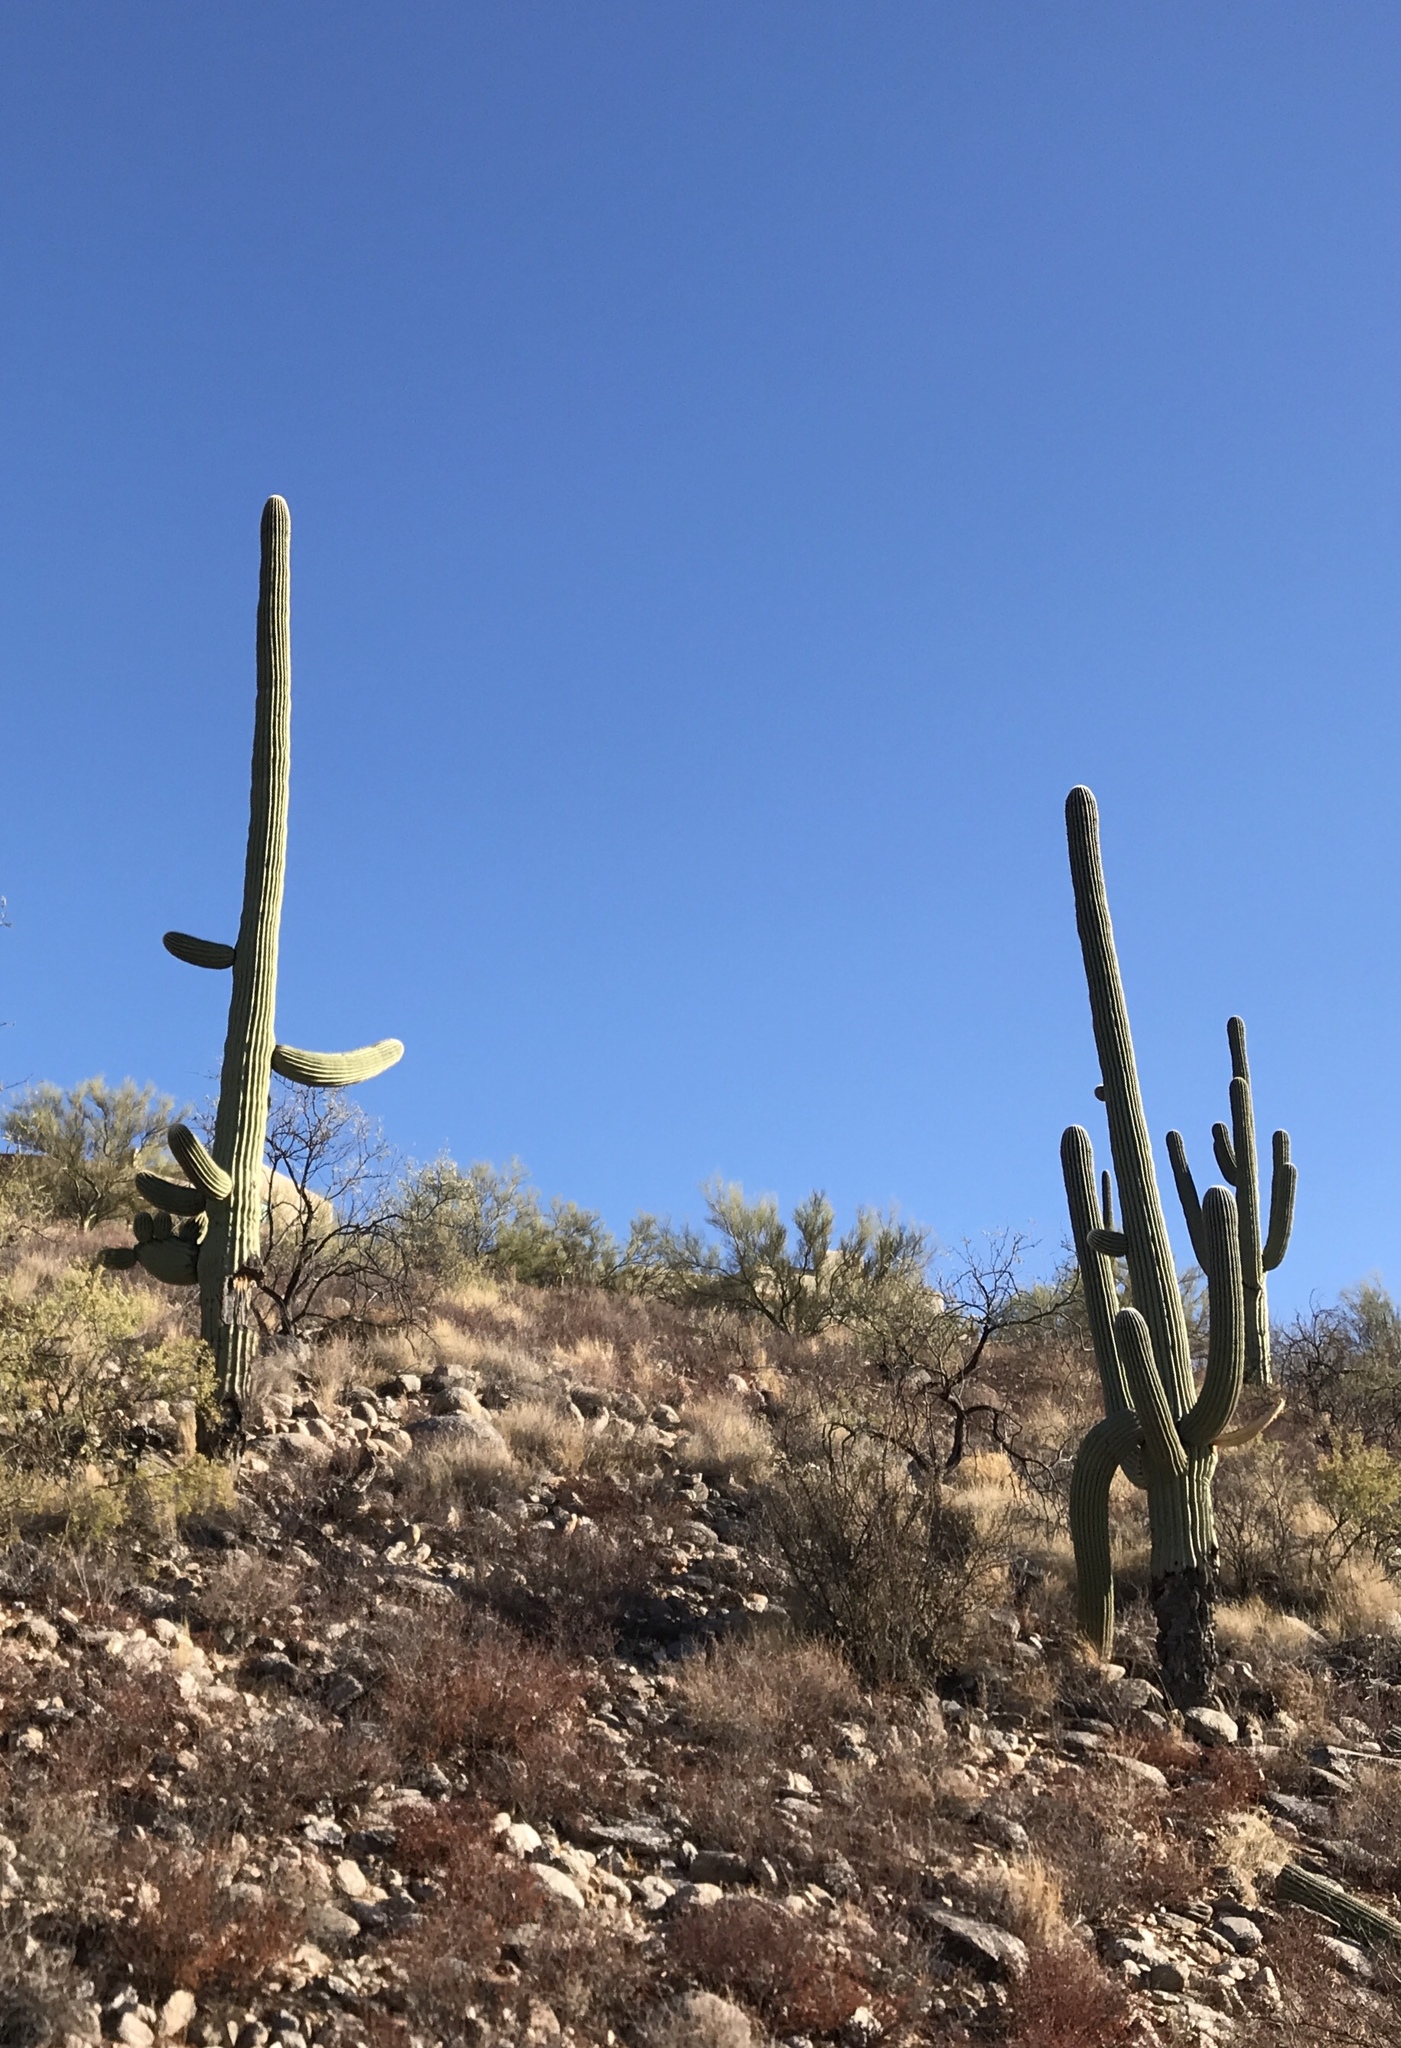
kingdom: Plantae
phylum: Tracheophyta
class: Magnoliopsida
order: Caryophyllales
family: Cactaceae
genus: Carnegiea
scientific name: Carnegiea gigantea
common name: Saguaro
